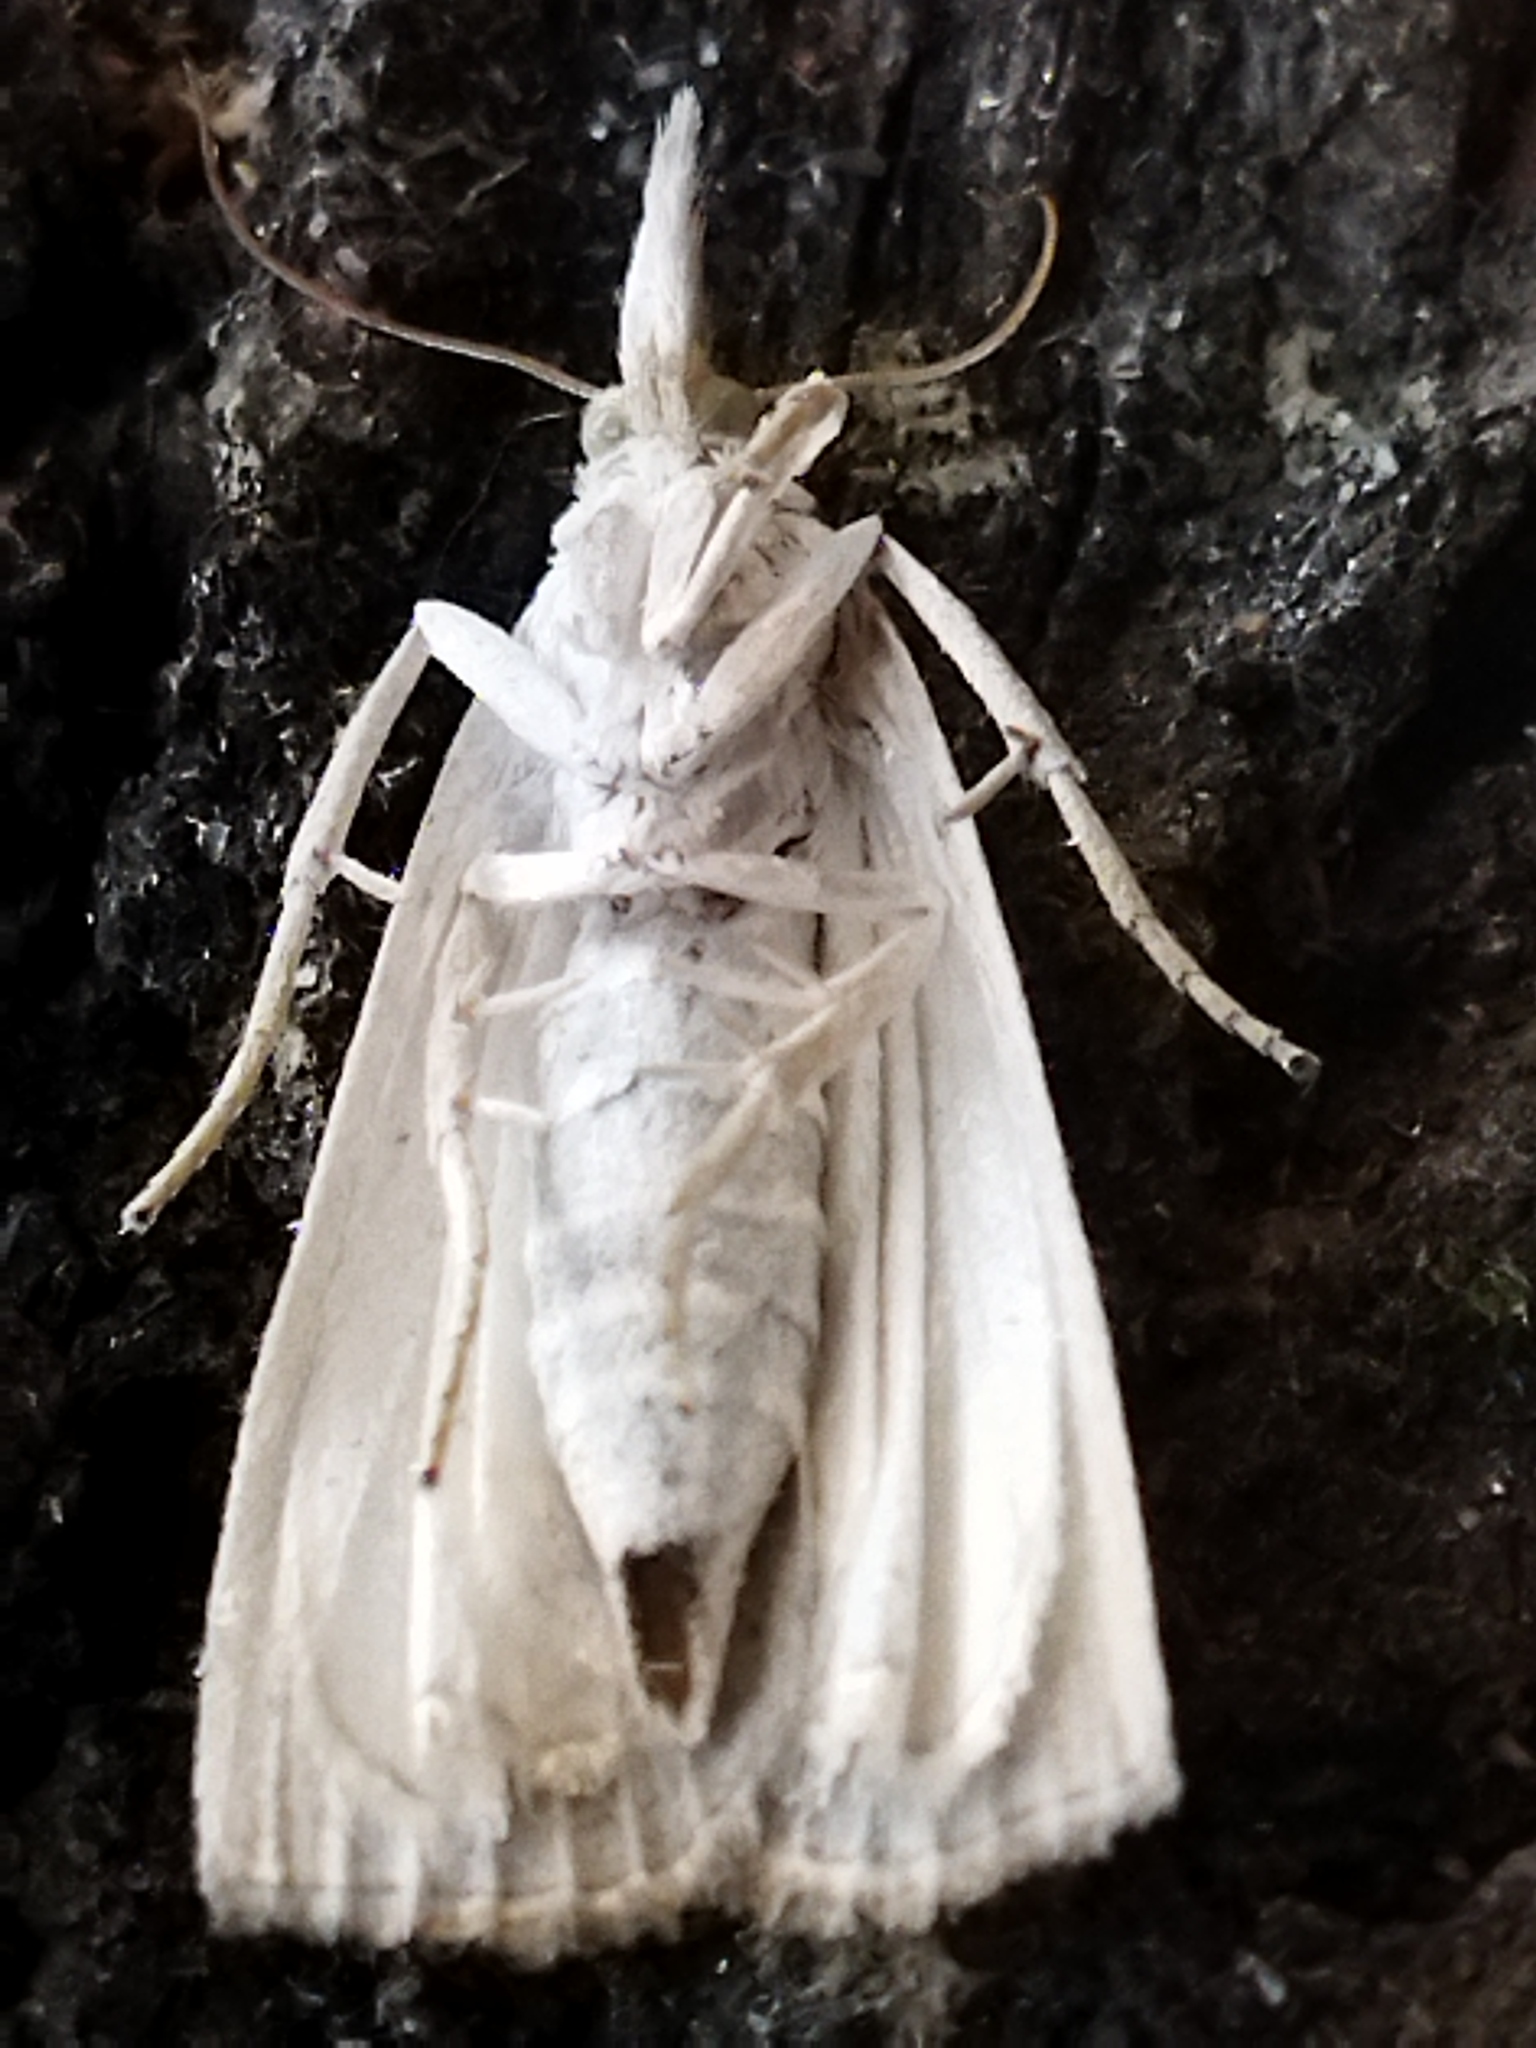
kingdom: Animalia
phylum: Arthropoda
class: Insecta
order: Lepidoptera
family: Crambidae
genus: Calamotropha
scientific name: Calamotropha paludella
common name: Bulrush veneer
